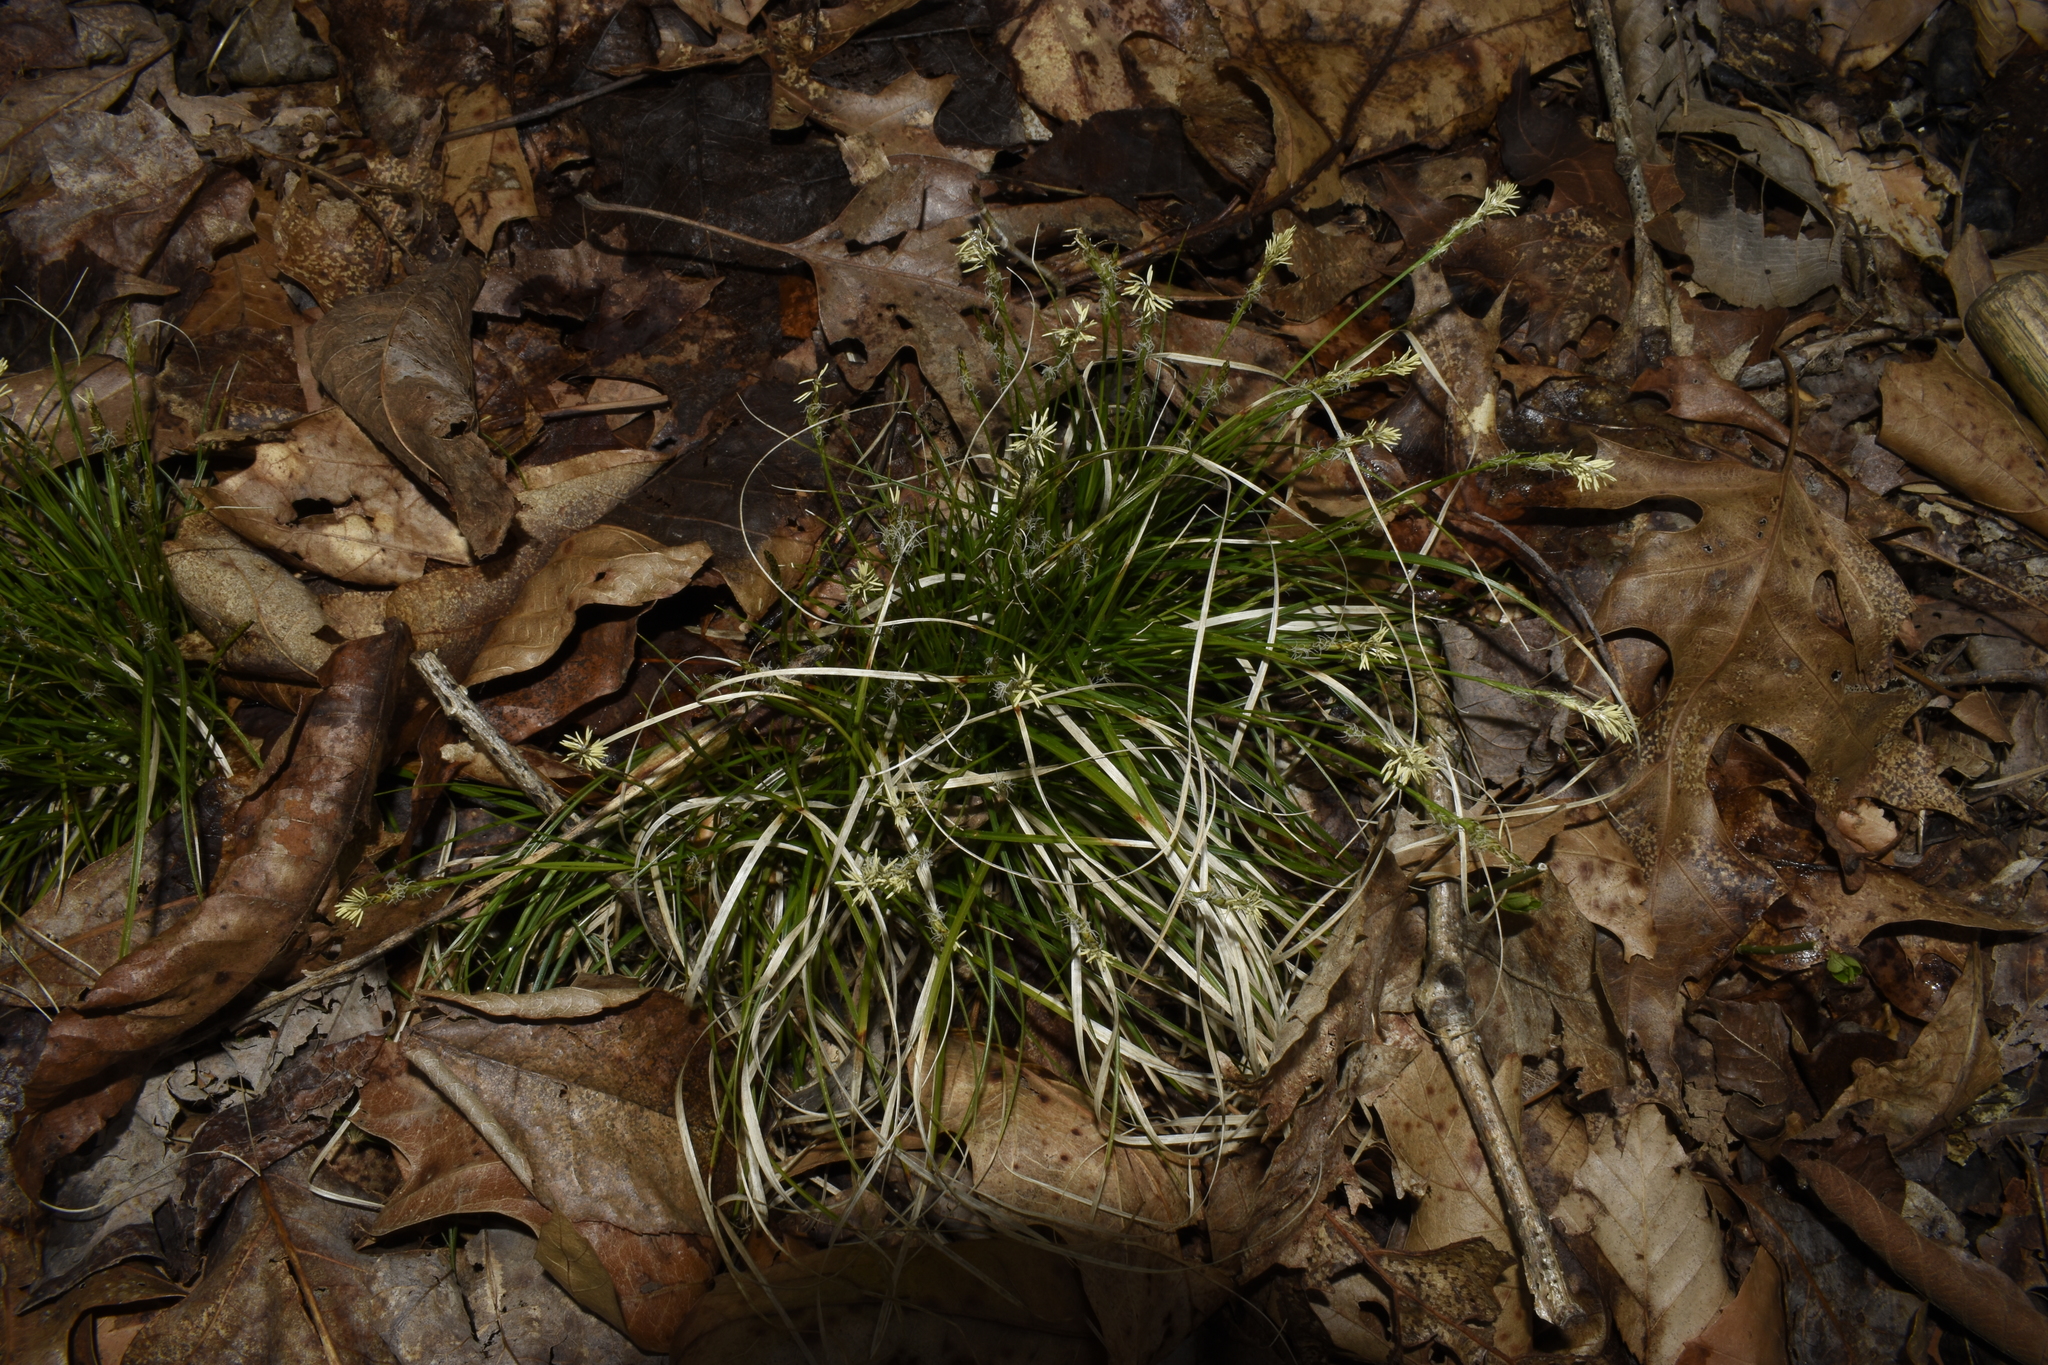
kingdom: Plantae
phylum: Tracheophyta
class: Liliopsida
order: Poales
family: Cyperaceae
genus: Carex
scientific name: Carex pensylvanica
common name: Common oak sedge
